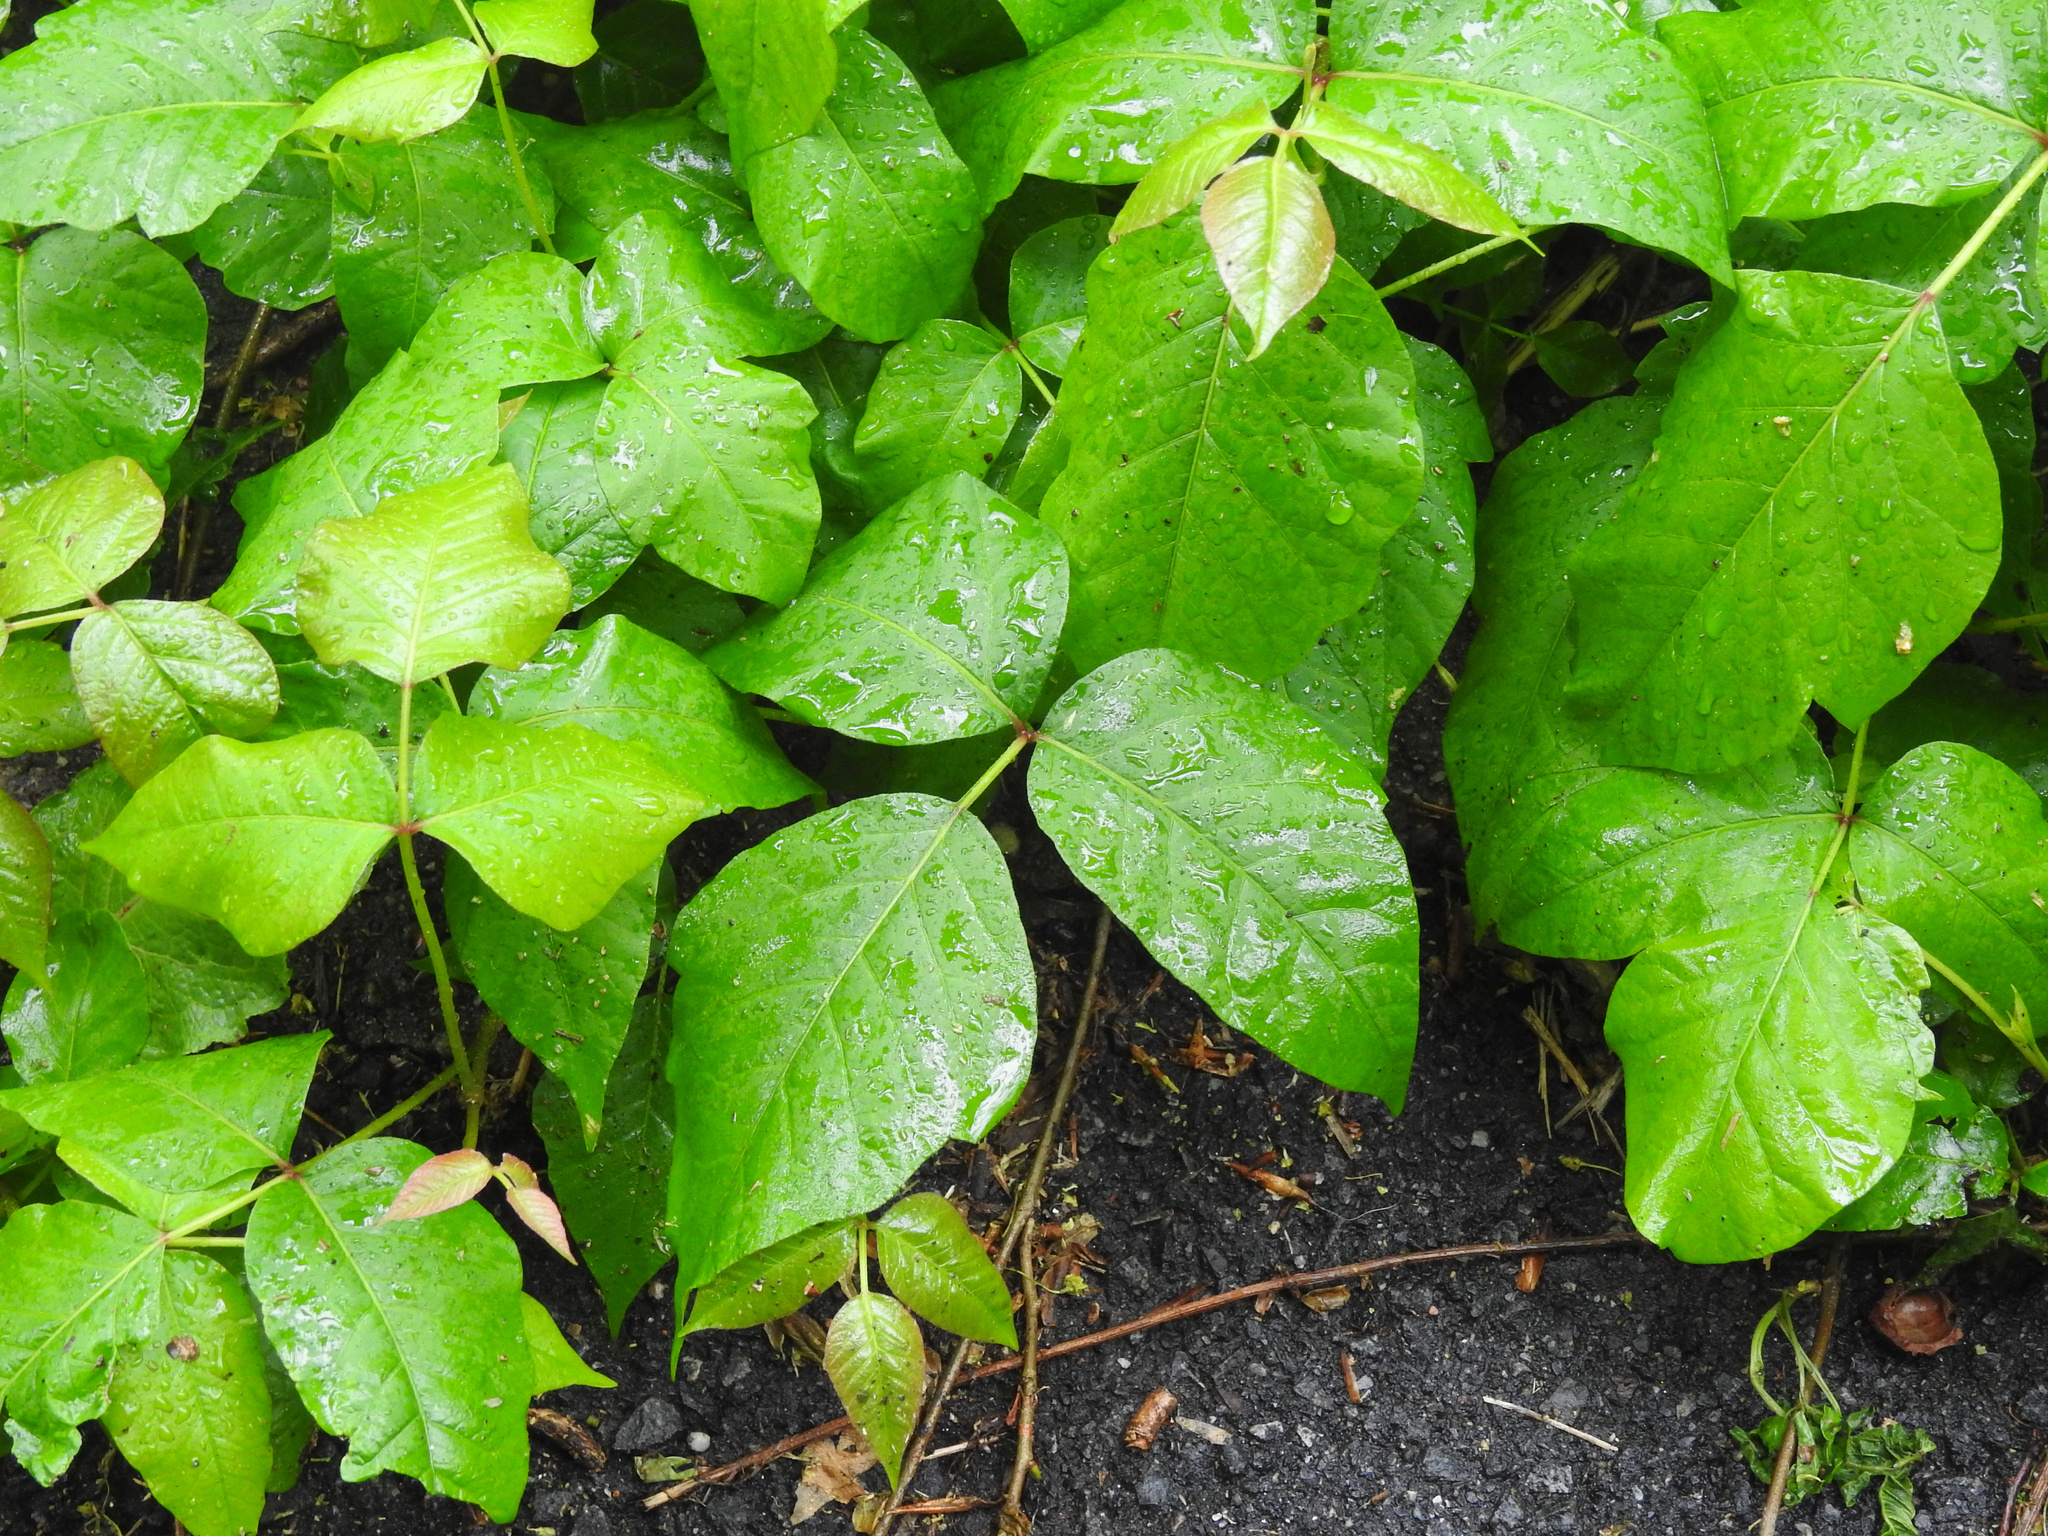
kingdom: Plantae
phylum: Tracheophyta
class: Magnoliopsida
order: Sapindales
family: Anacardiaceae
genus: Toxicodendron
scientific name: Toxicodendron radicans
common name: Poison ivy
